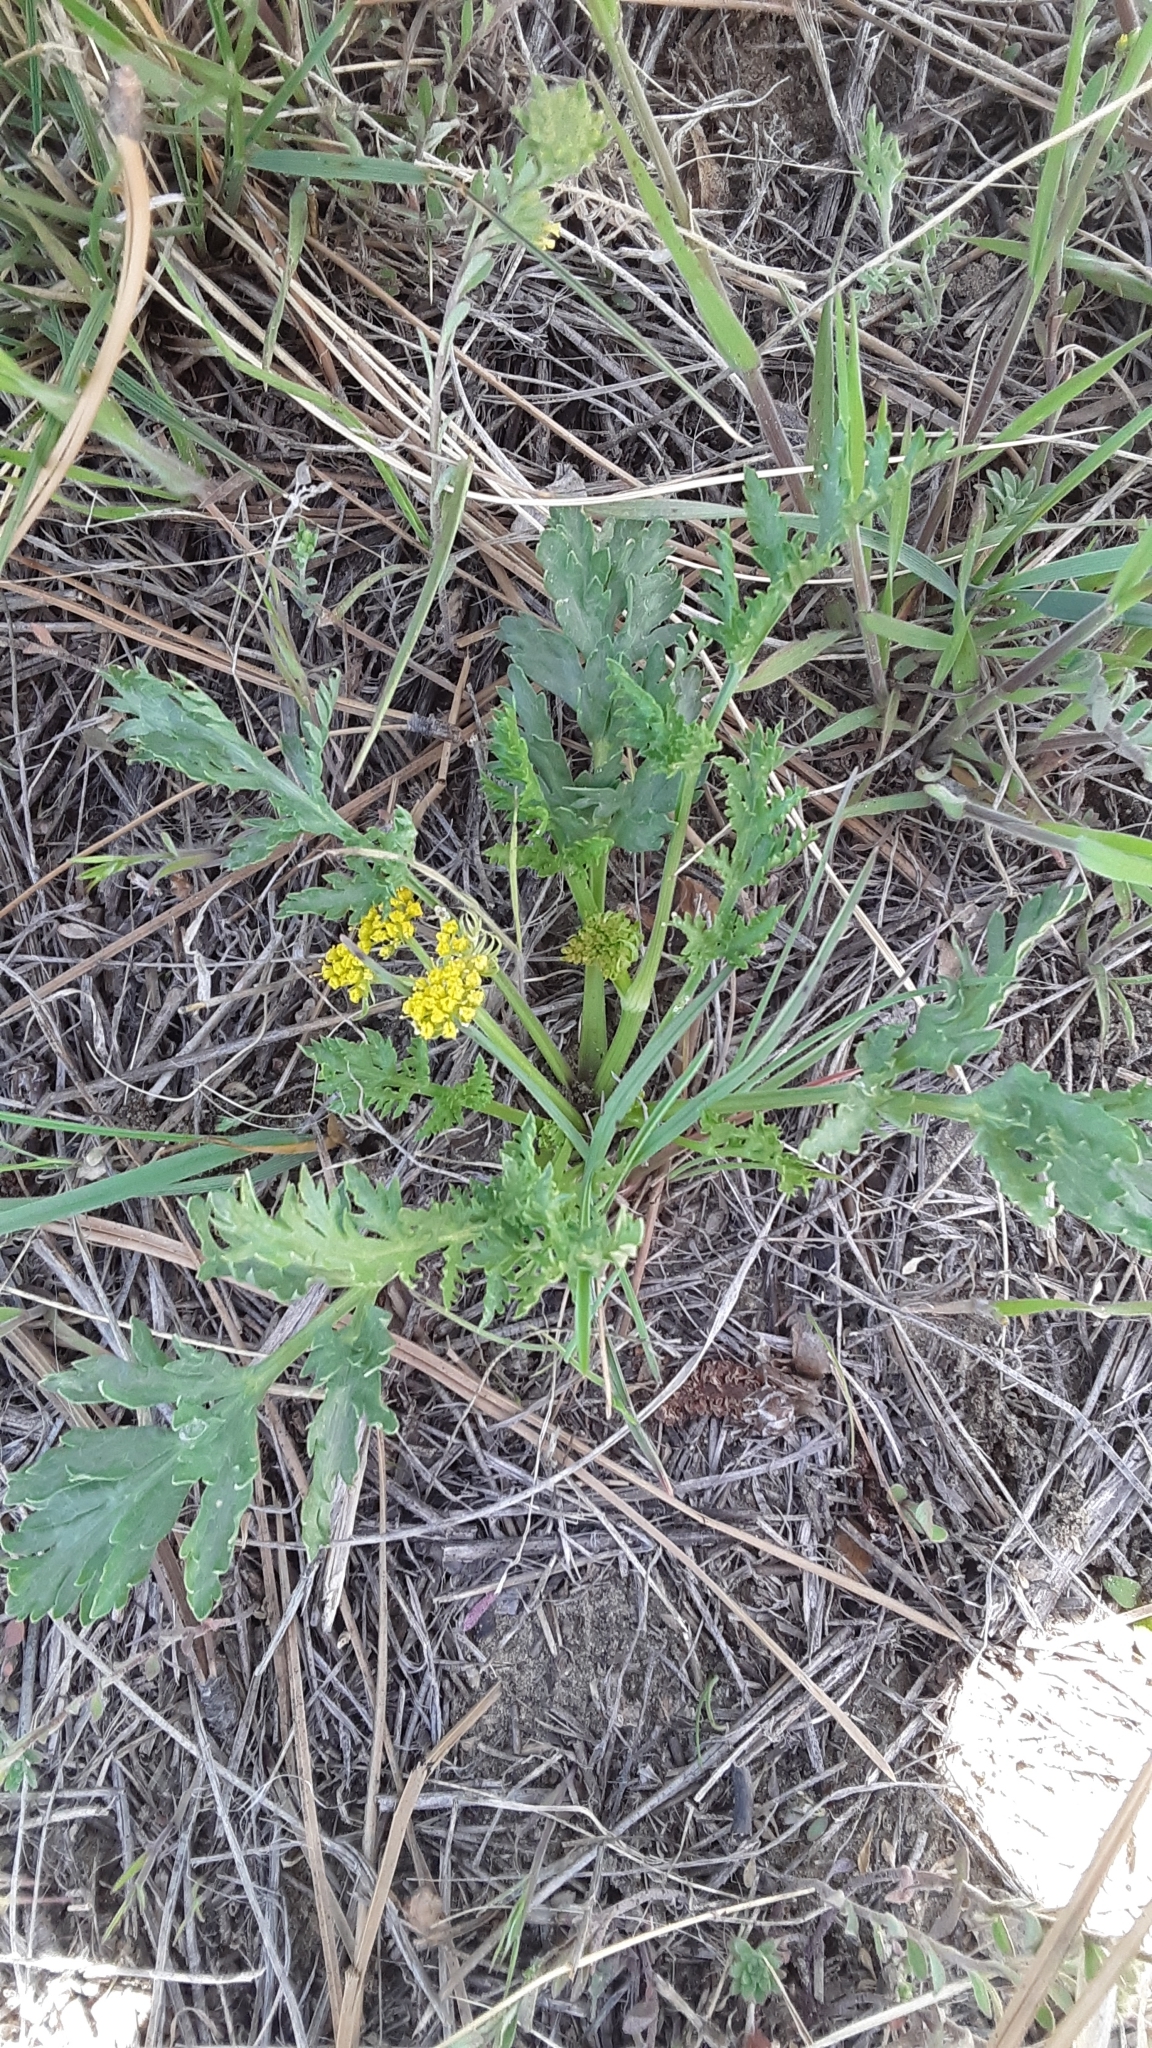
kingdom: Plantae
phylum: Tracheophyta
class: Magnoliopsida
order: Apiales
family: Apiaceae
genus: Musineon
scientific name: Musineon divaricatum
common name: Plains musineon
